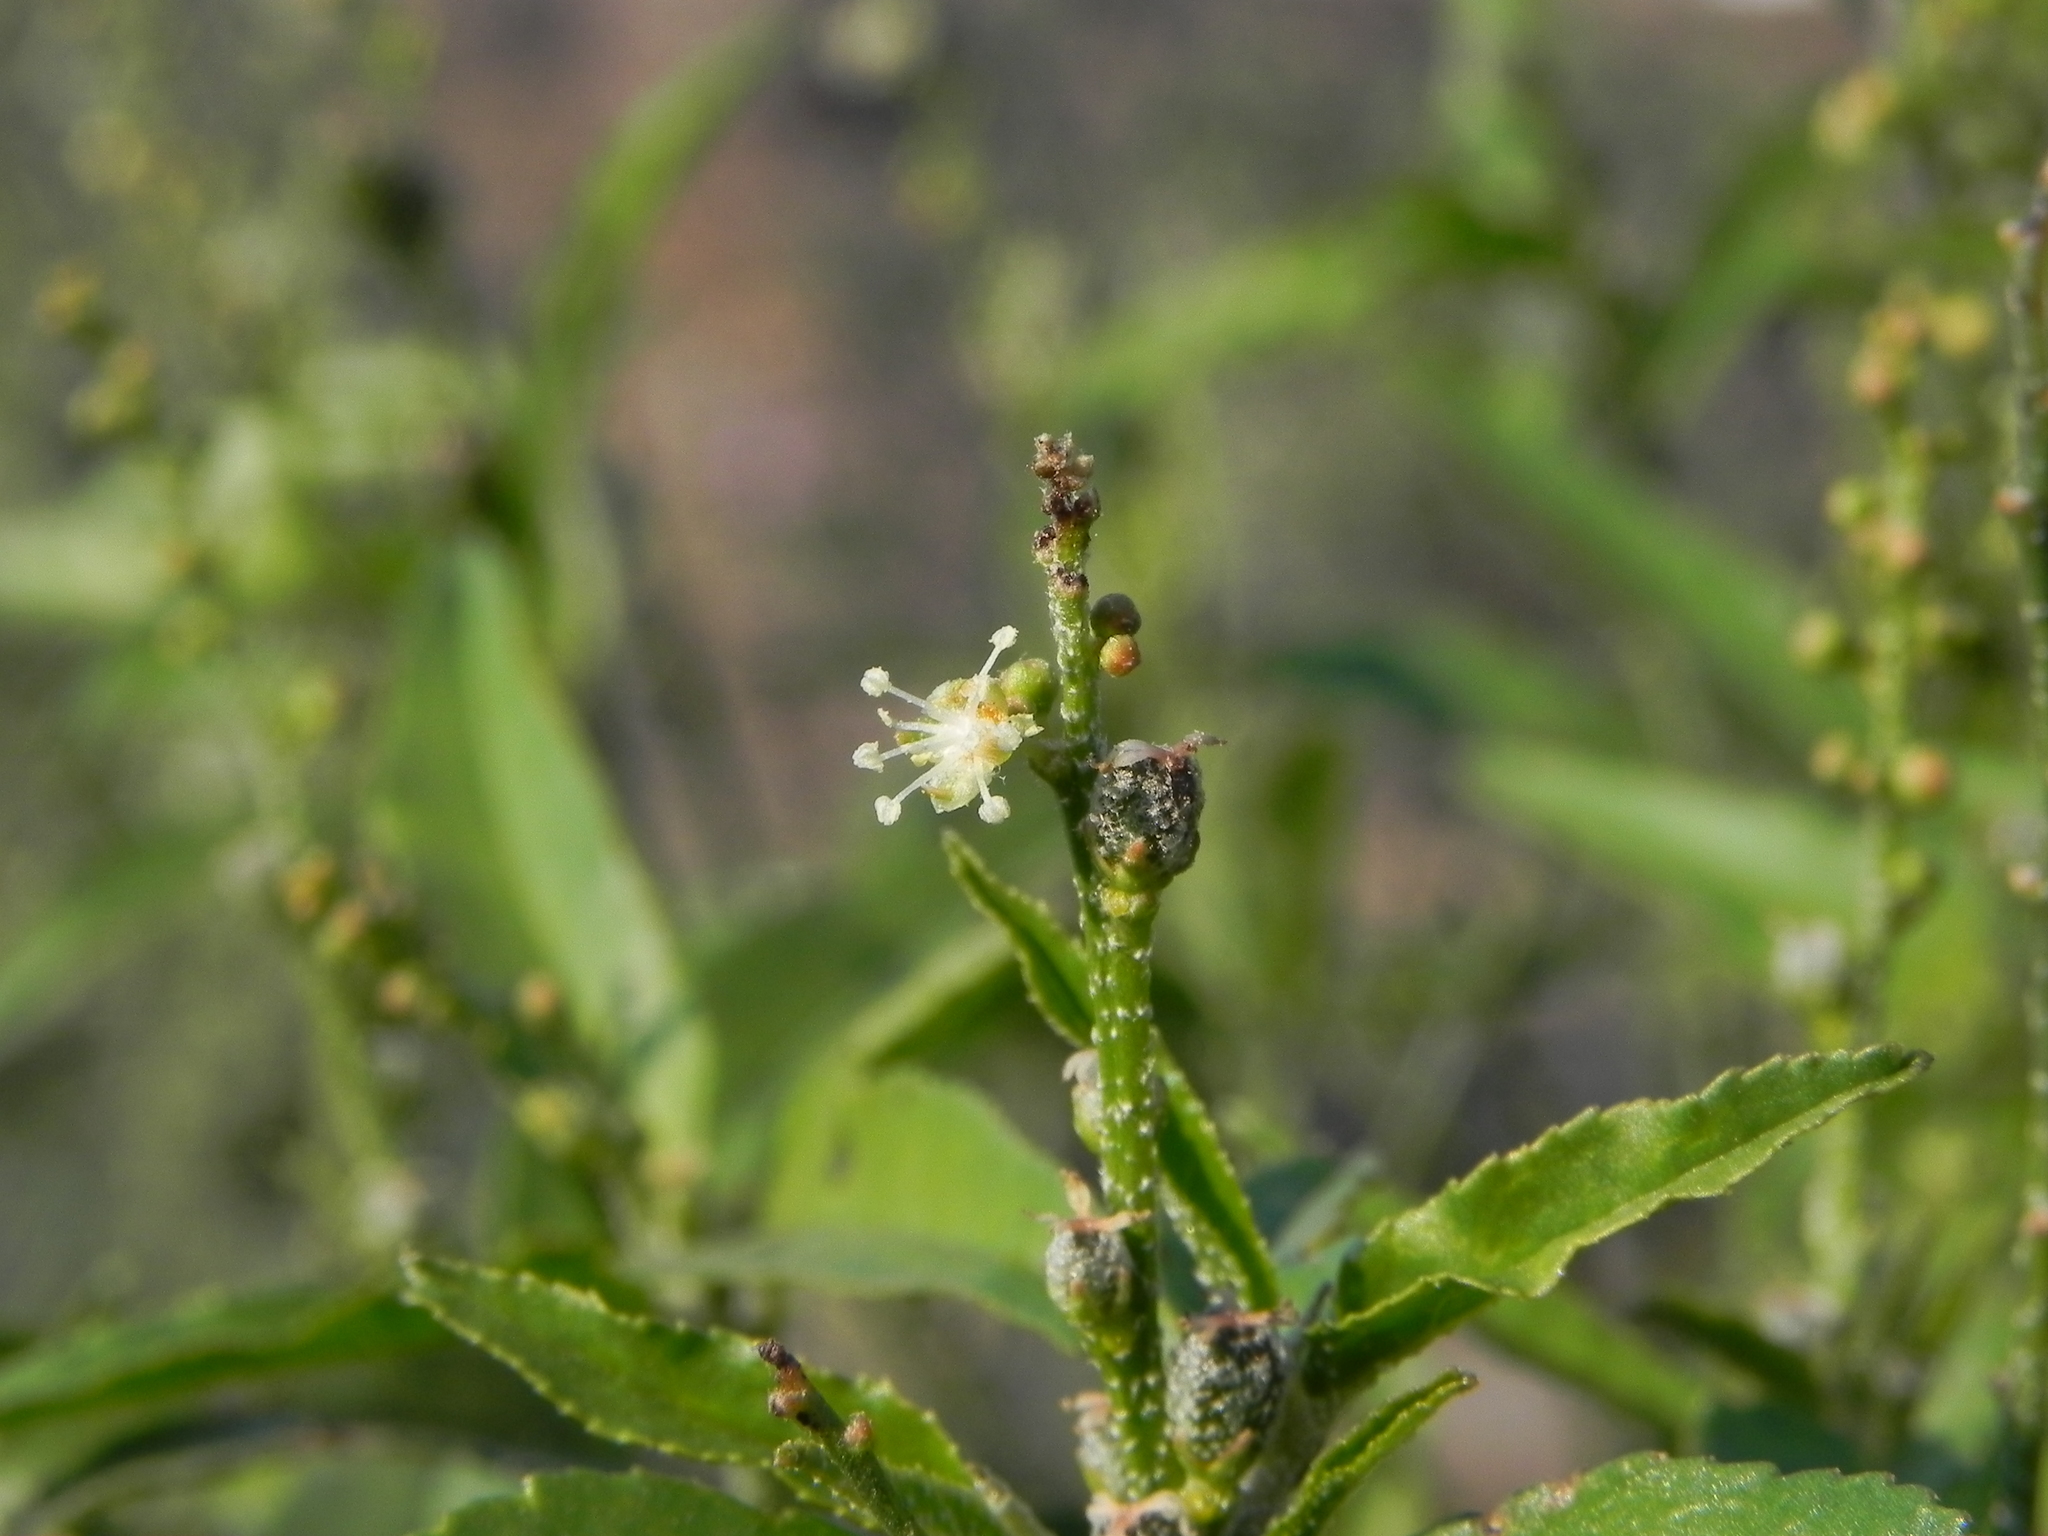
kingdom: Plantae
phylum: Tracheophyta
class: Magnoliopsida
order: Malpighiales
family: Euphorbiaceae
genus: Croton
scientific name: Croton bonplandianus
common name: Bonpland's croton
